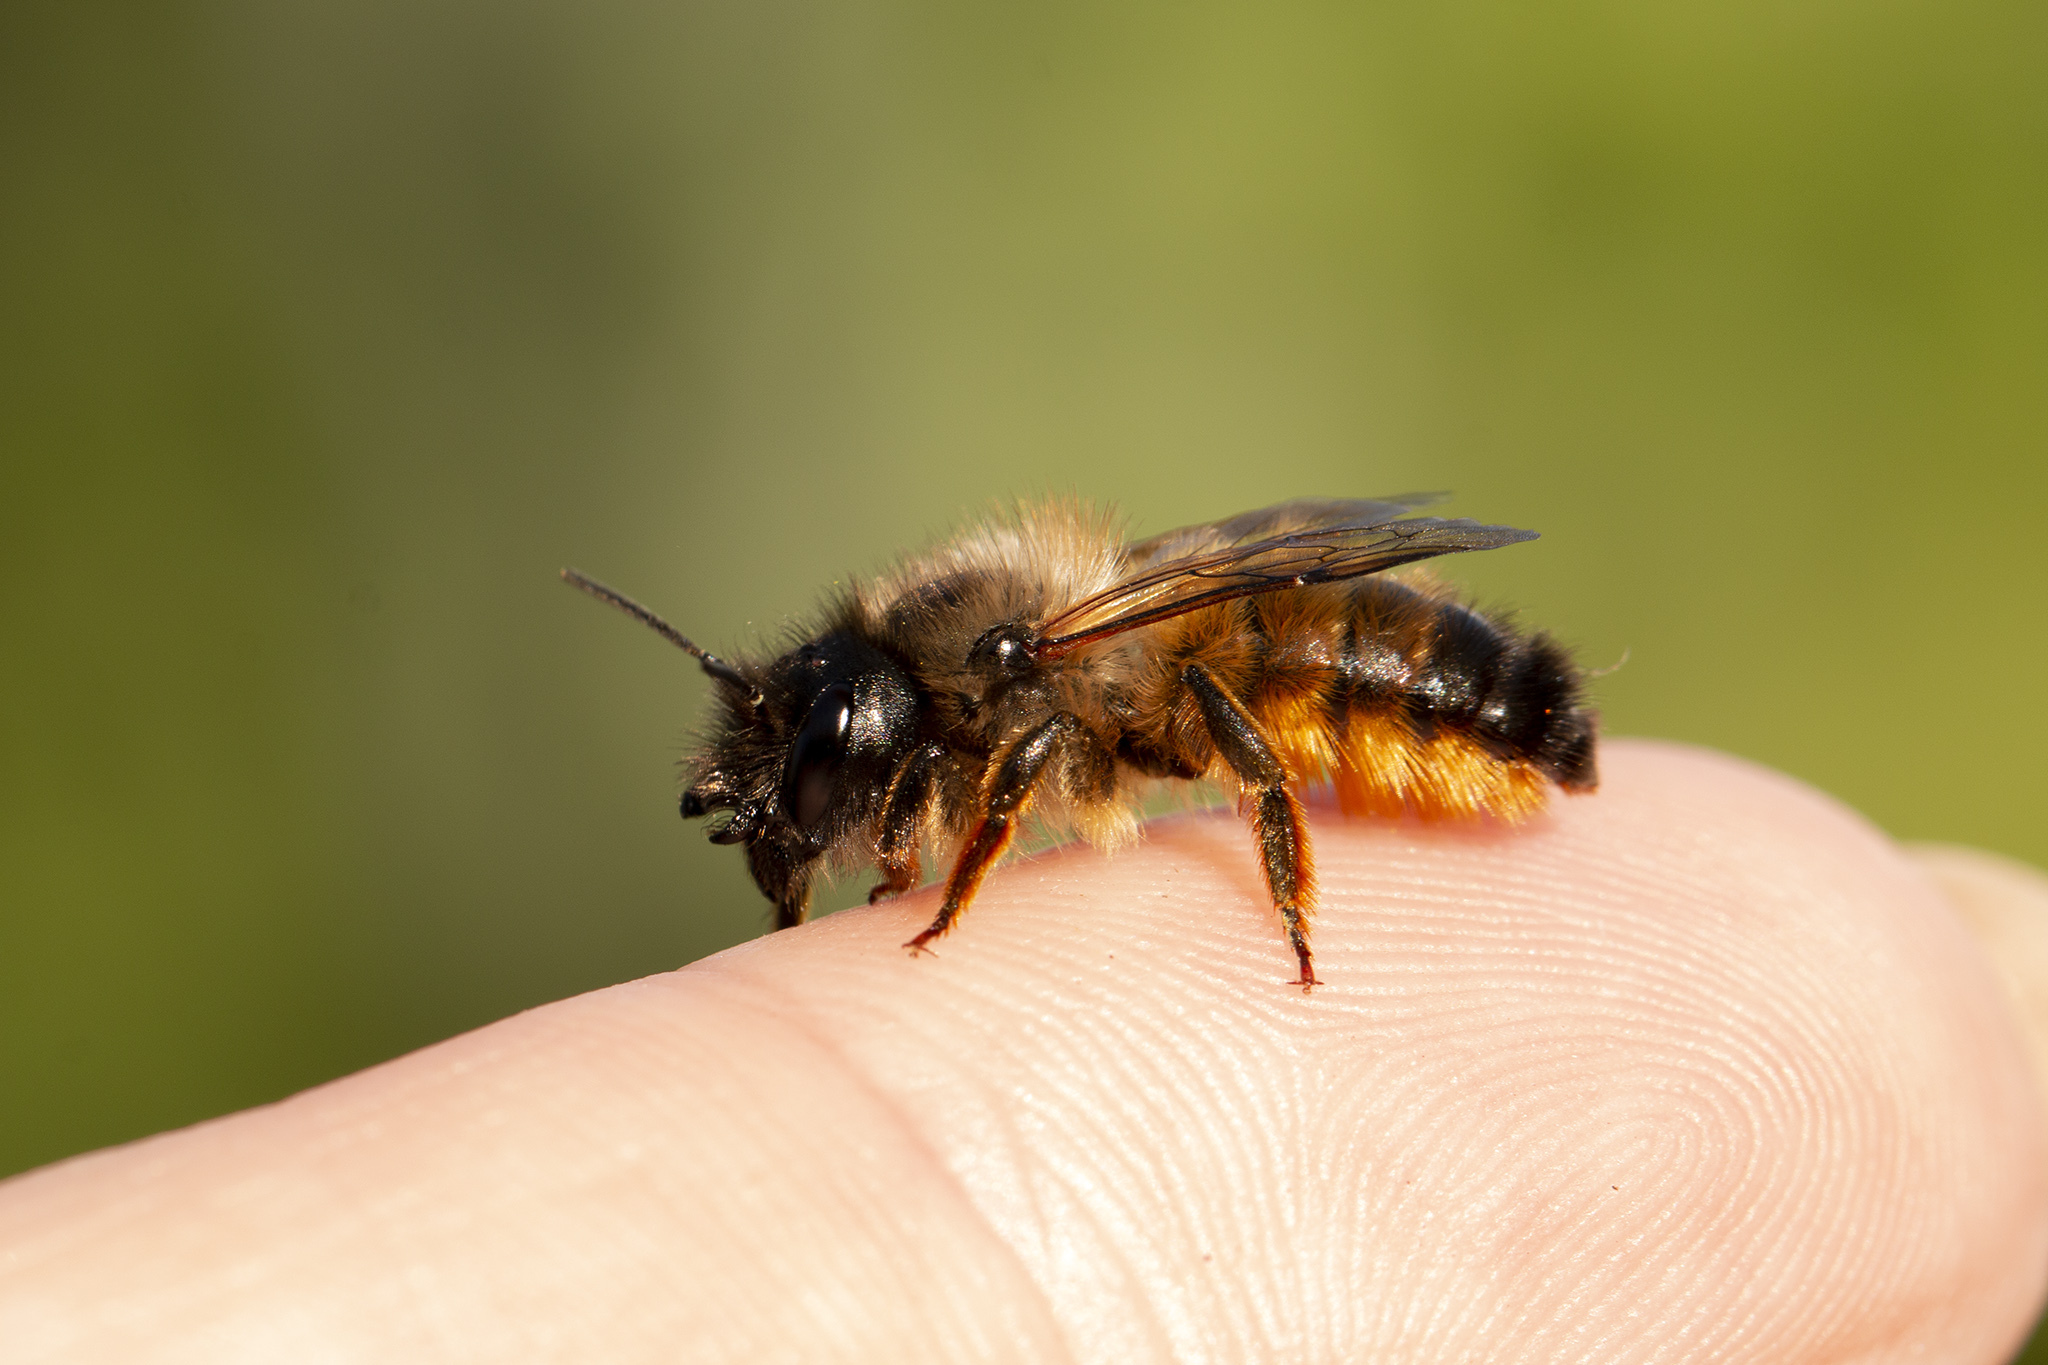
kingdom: Animalia
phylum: Arthropoda
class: Insecta
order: Hymenoptera
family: Megachilidae
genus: Osmia
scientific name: Osmia bicornis
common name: Red mason bee
